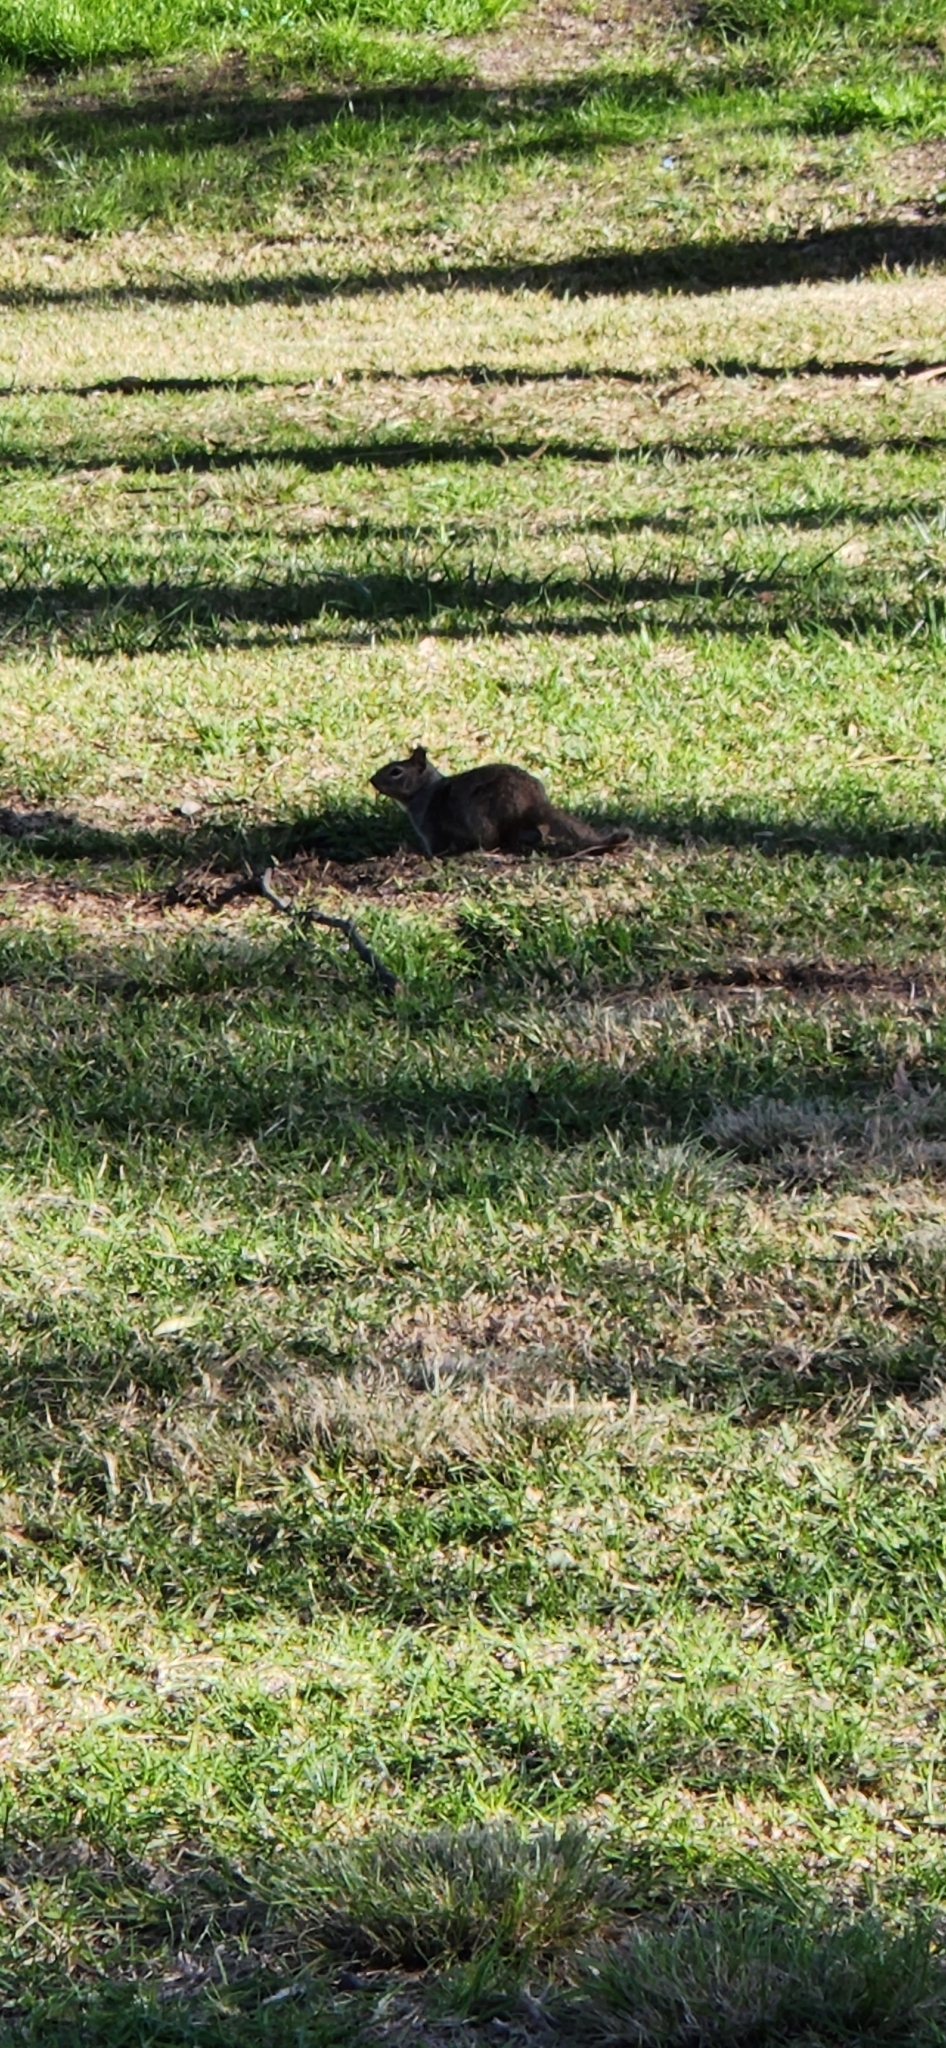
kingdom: Animalia
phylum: Chordata
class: Mammalia
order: Rodentia
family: Sciuridae
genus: Otospermophilus
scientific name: Otospermophilus beecheyi
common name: California ground squirrel
